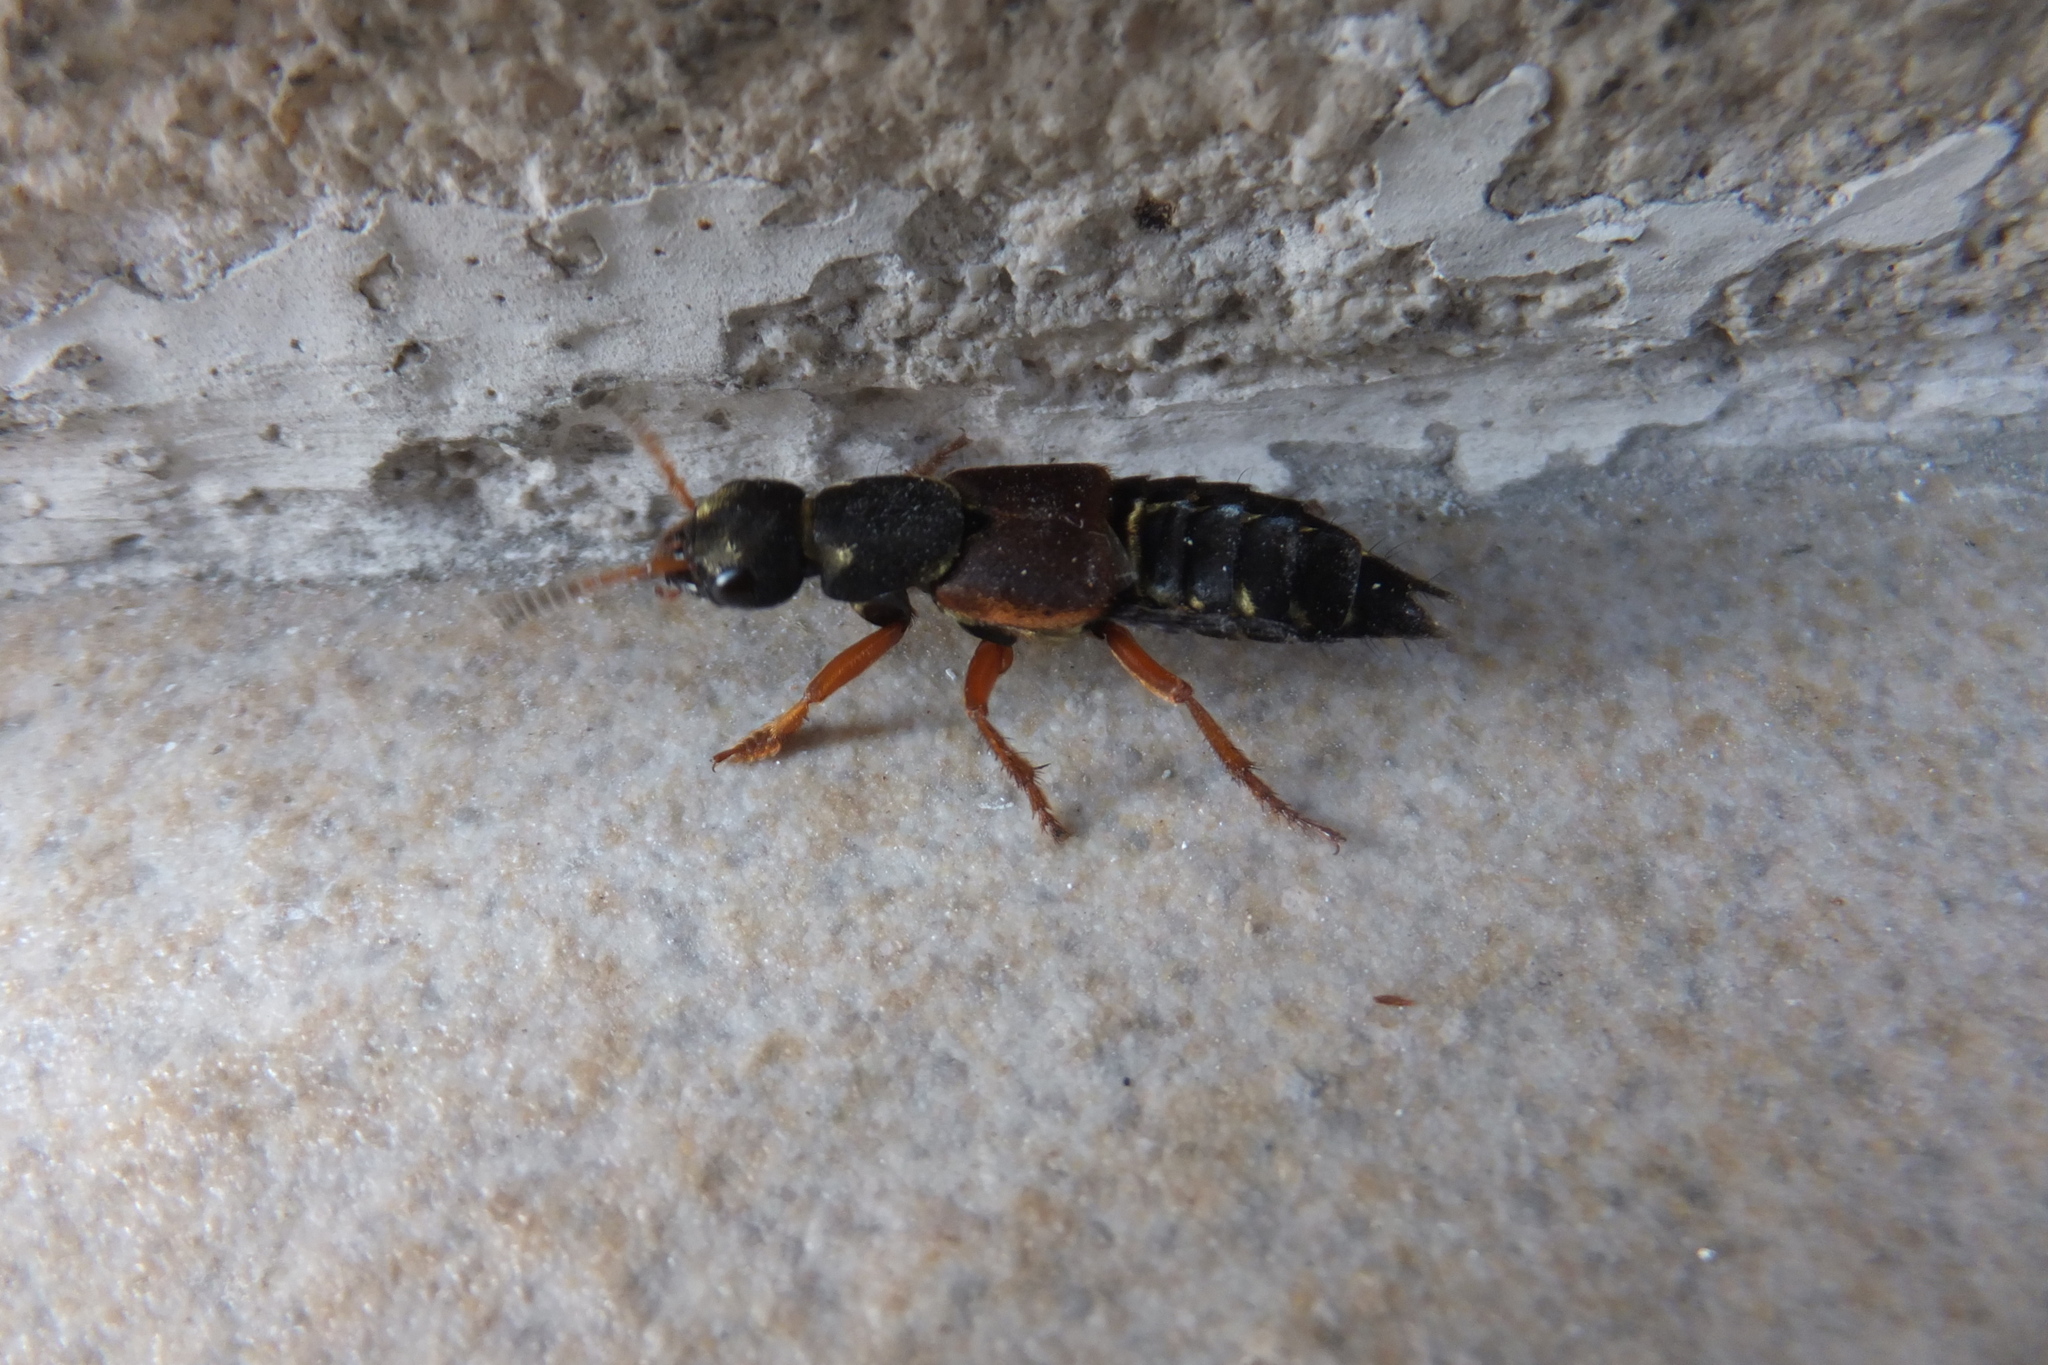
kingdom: Animalia
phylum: Arthropoda
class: Insecta
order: Coleoptera
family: Staphylinidae
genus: Staphylinus
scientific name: Staphylinus dimidiaticornis
